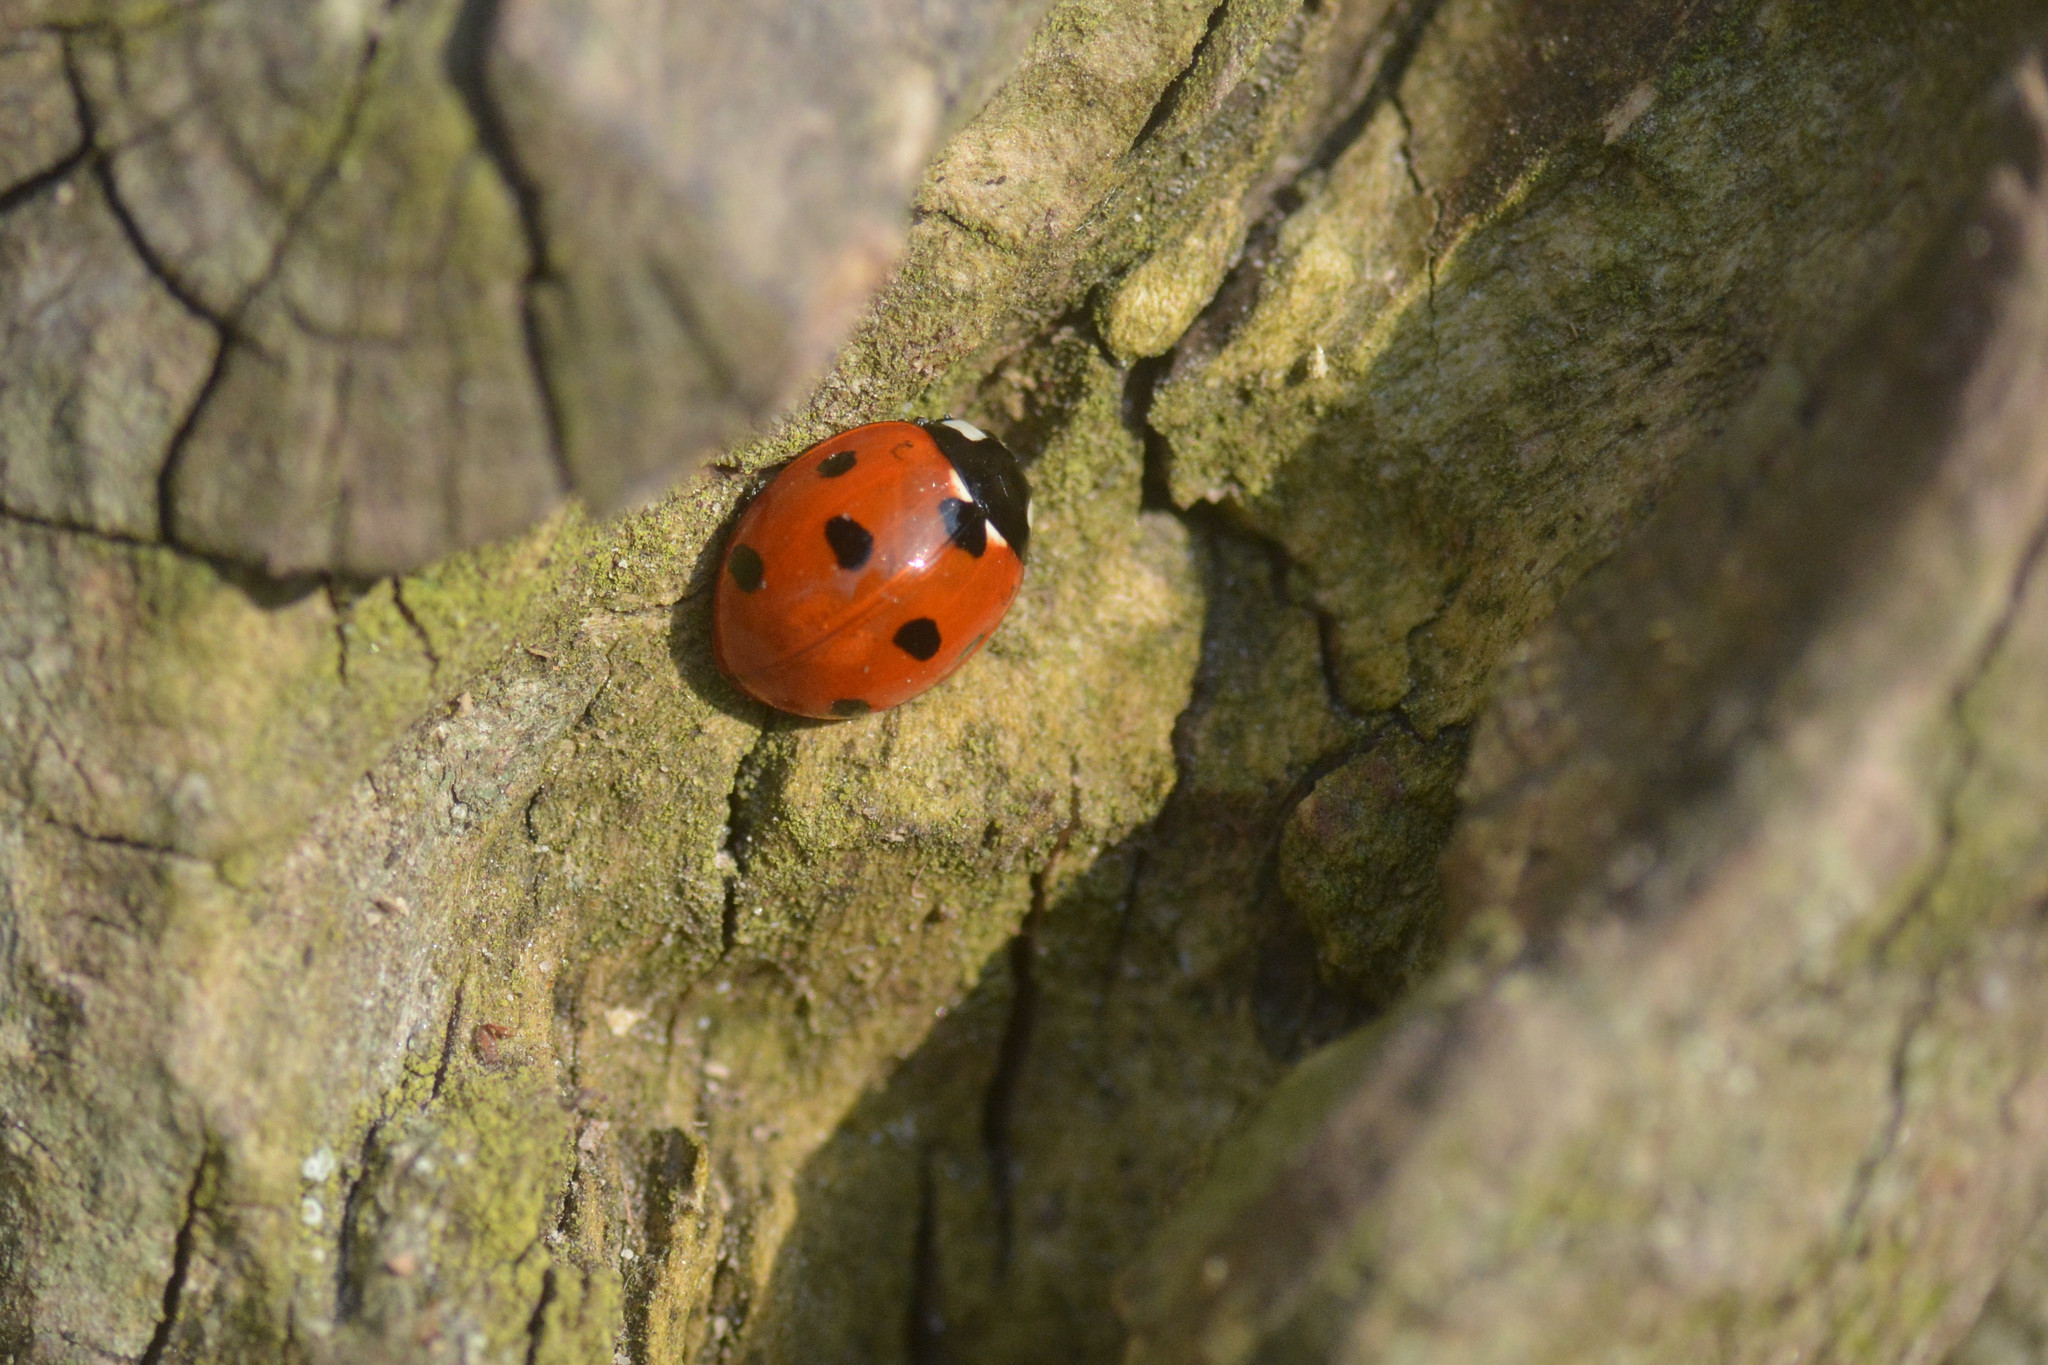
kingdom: Animalia
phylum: Arthropoda
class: Insecta
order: Coleoptera
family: Coccinellidae
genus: Coccinella
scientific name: Coccinella septempunctata
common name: Sevenspotted lady beetle
